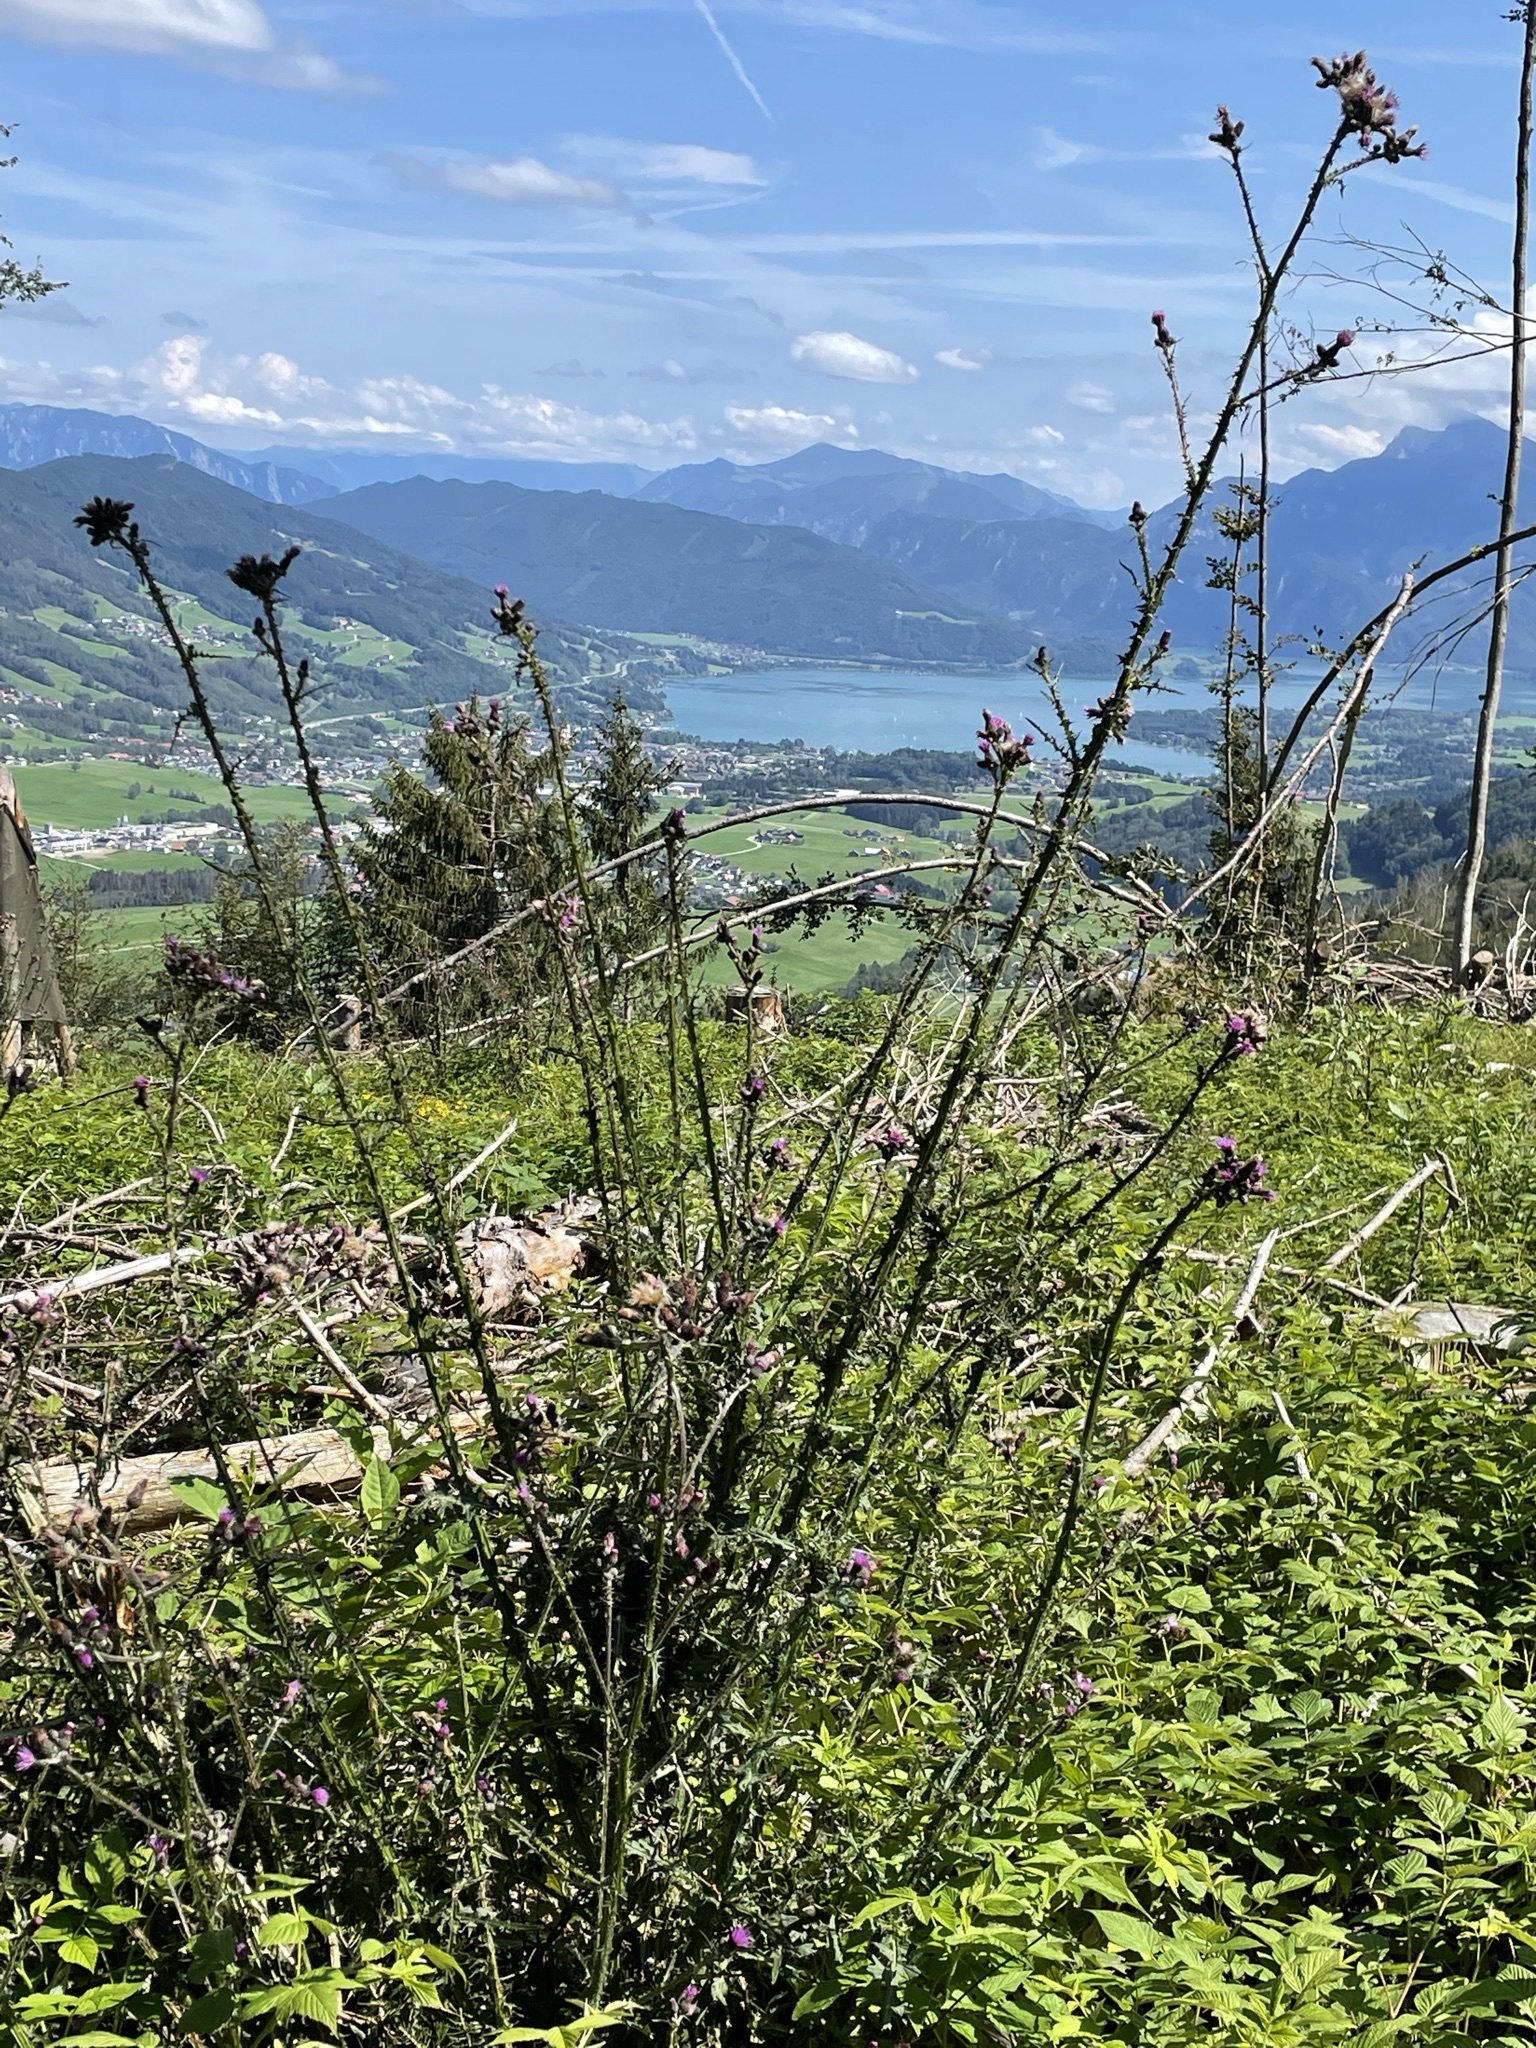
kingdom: Plantae
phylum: Tracheophyta
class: Magnoliopsida
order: Asterales
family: Asteraceae
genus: Cirsium
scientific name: Cirsium palustre
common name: Marsh thistle
